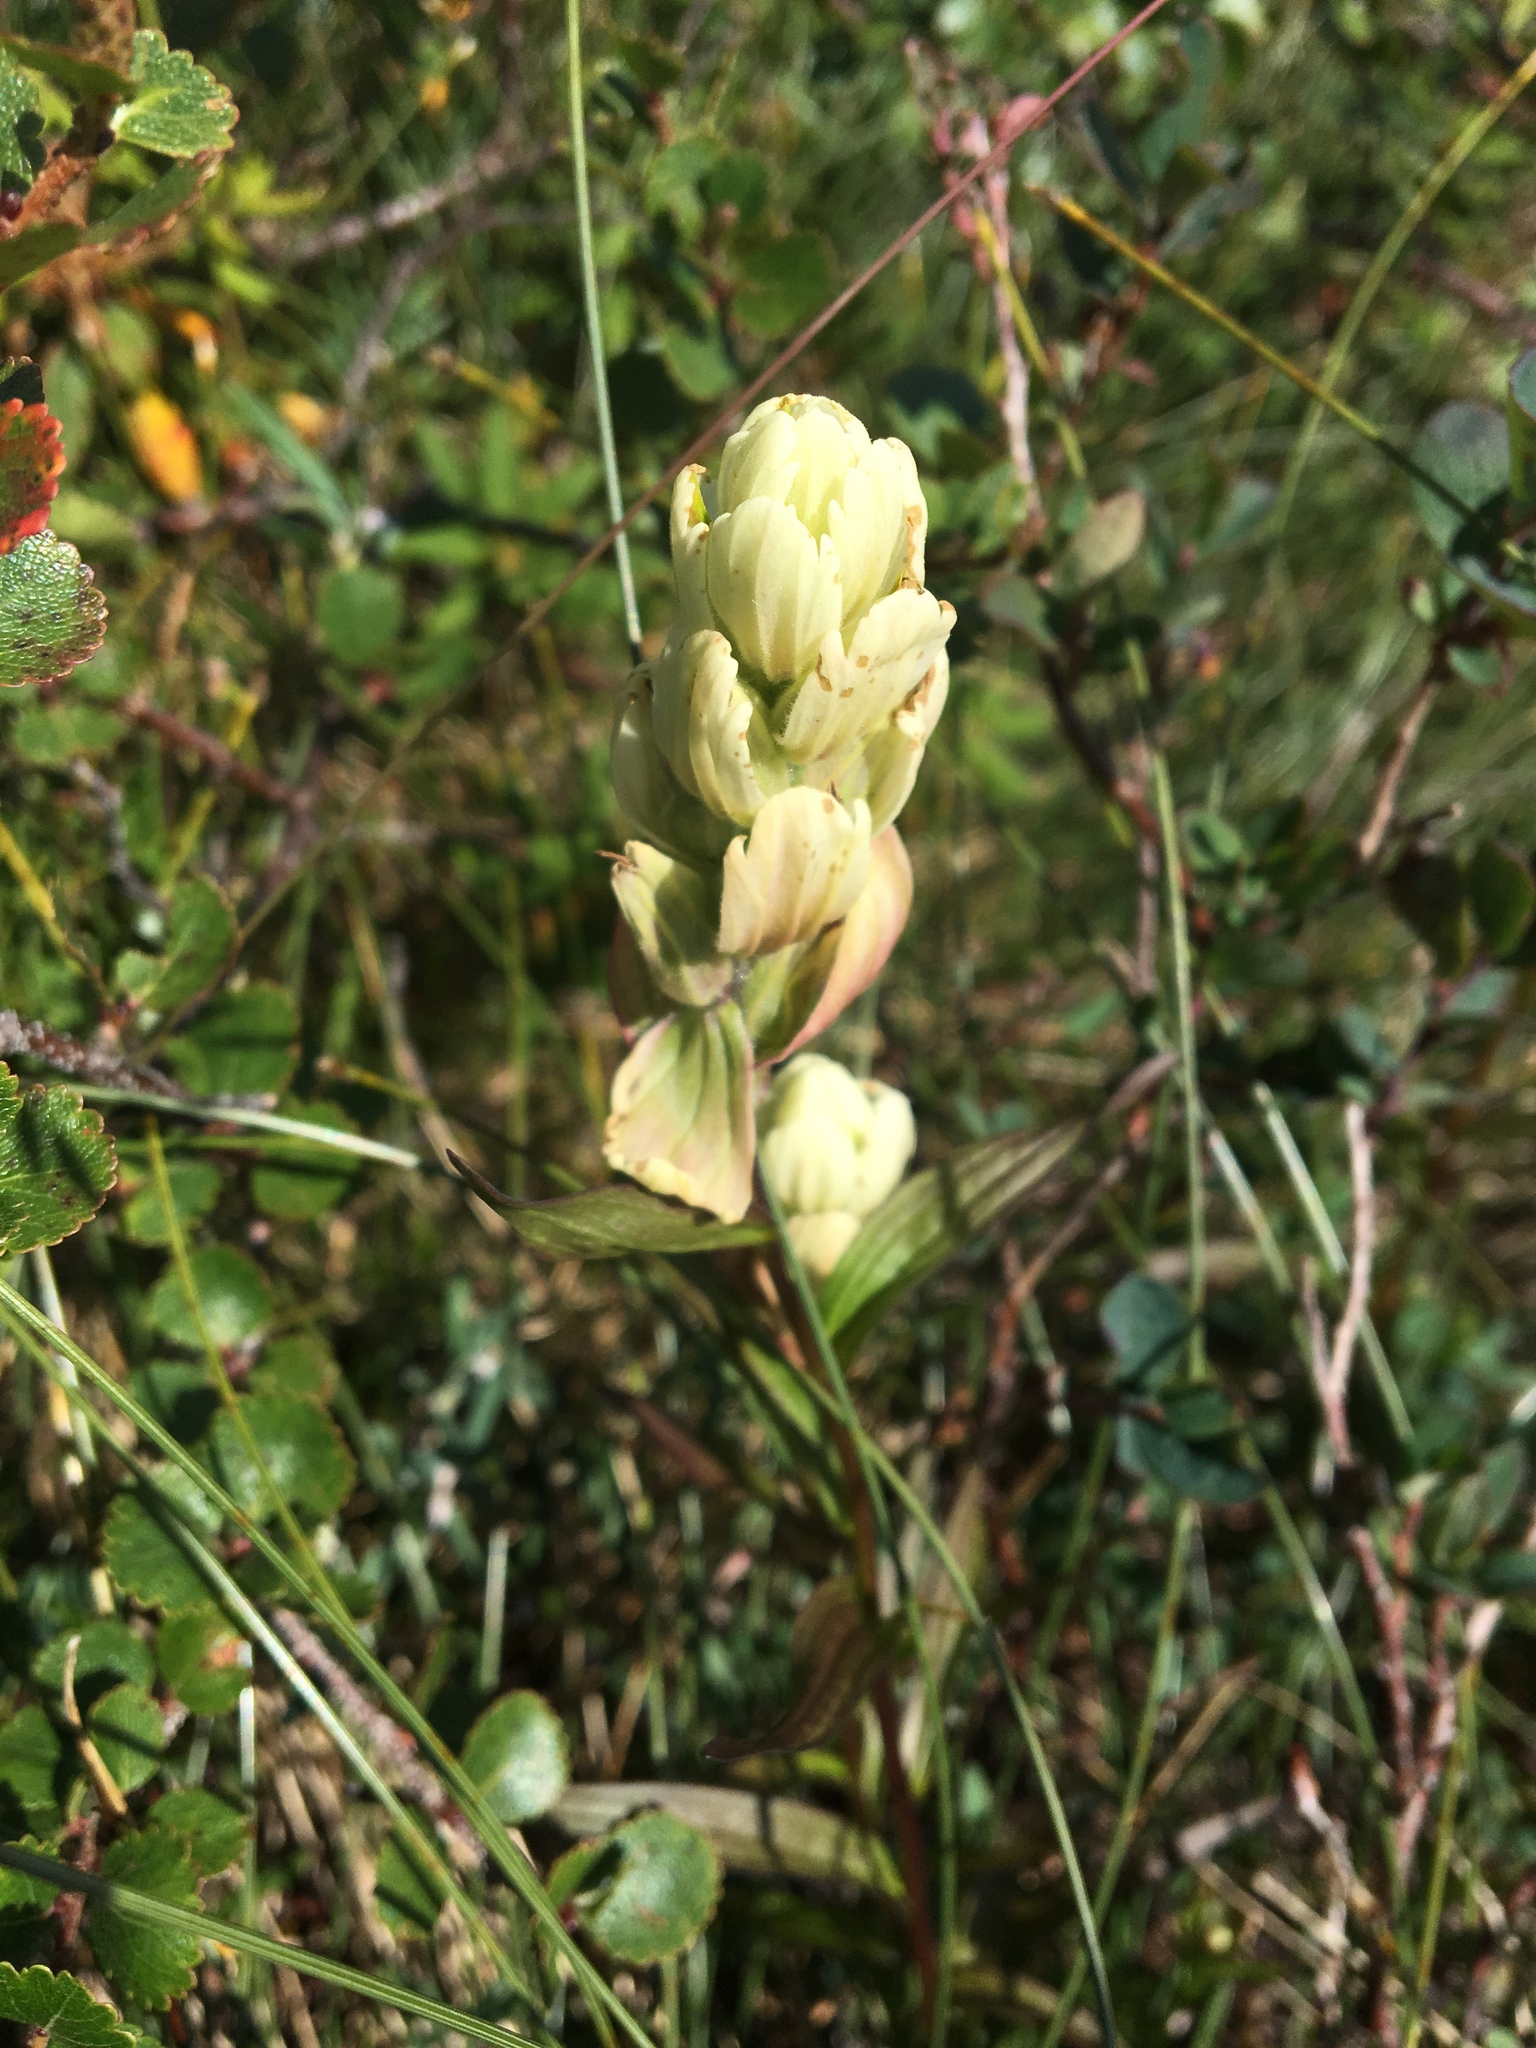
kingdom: Plantae
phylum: Tracheophyta
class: Magnoliopsida
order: Lamiales
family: Orobanchaceae
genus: Castilleja
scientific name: Castilleja septentrionalis
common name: Northeastern paintbrush
